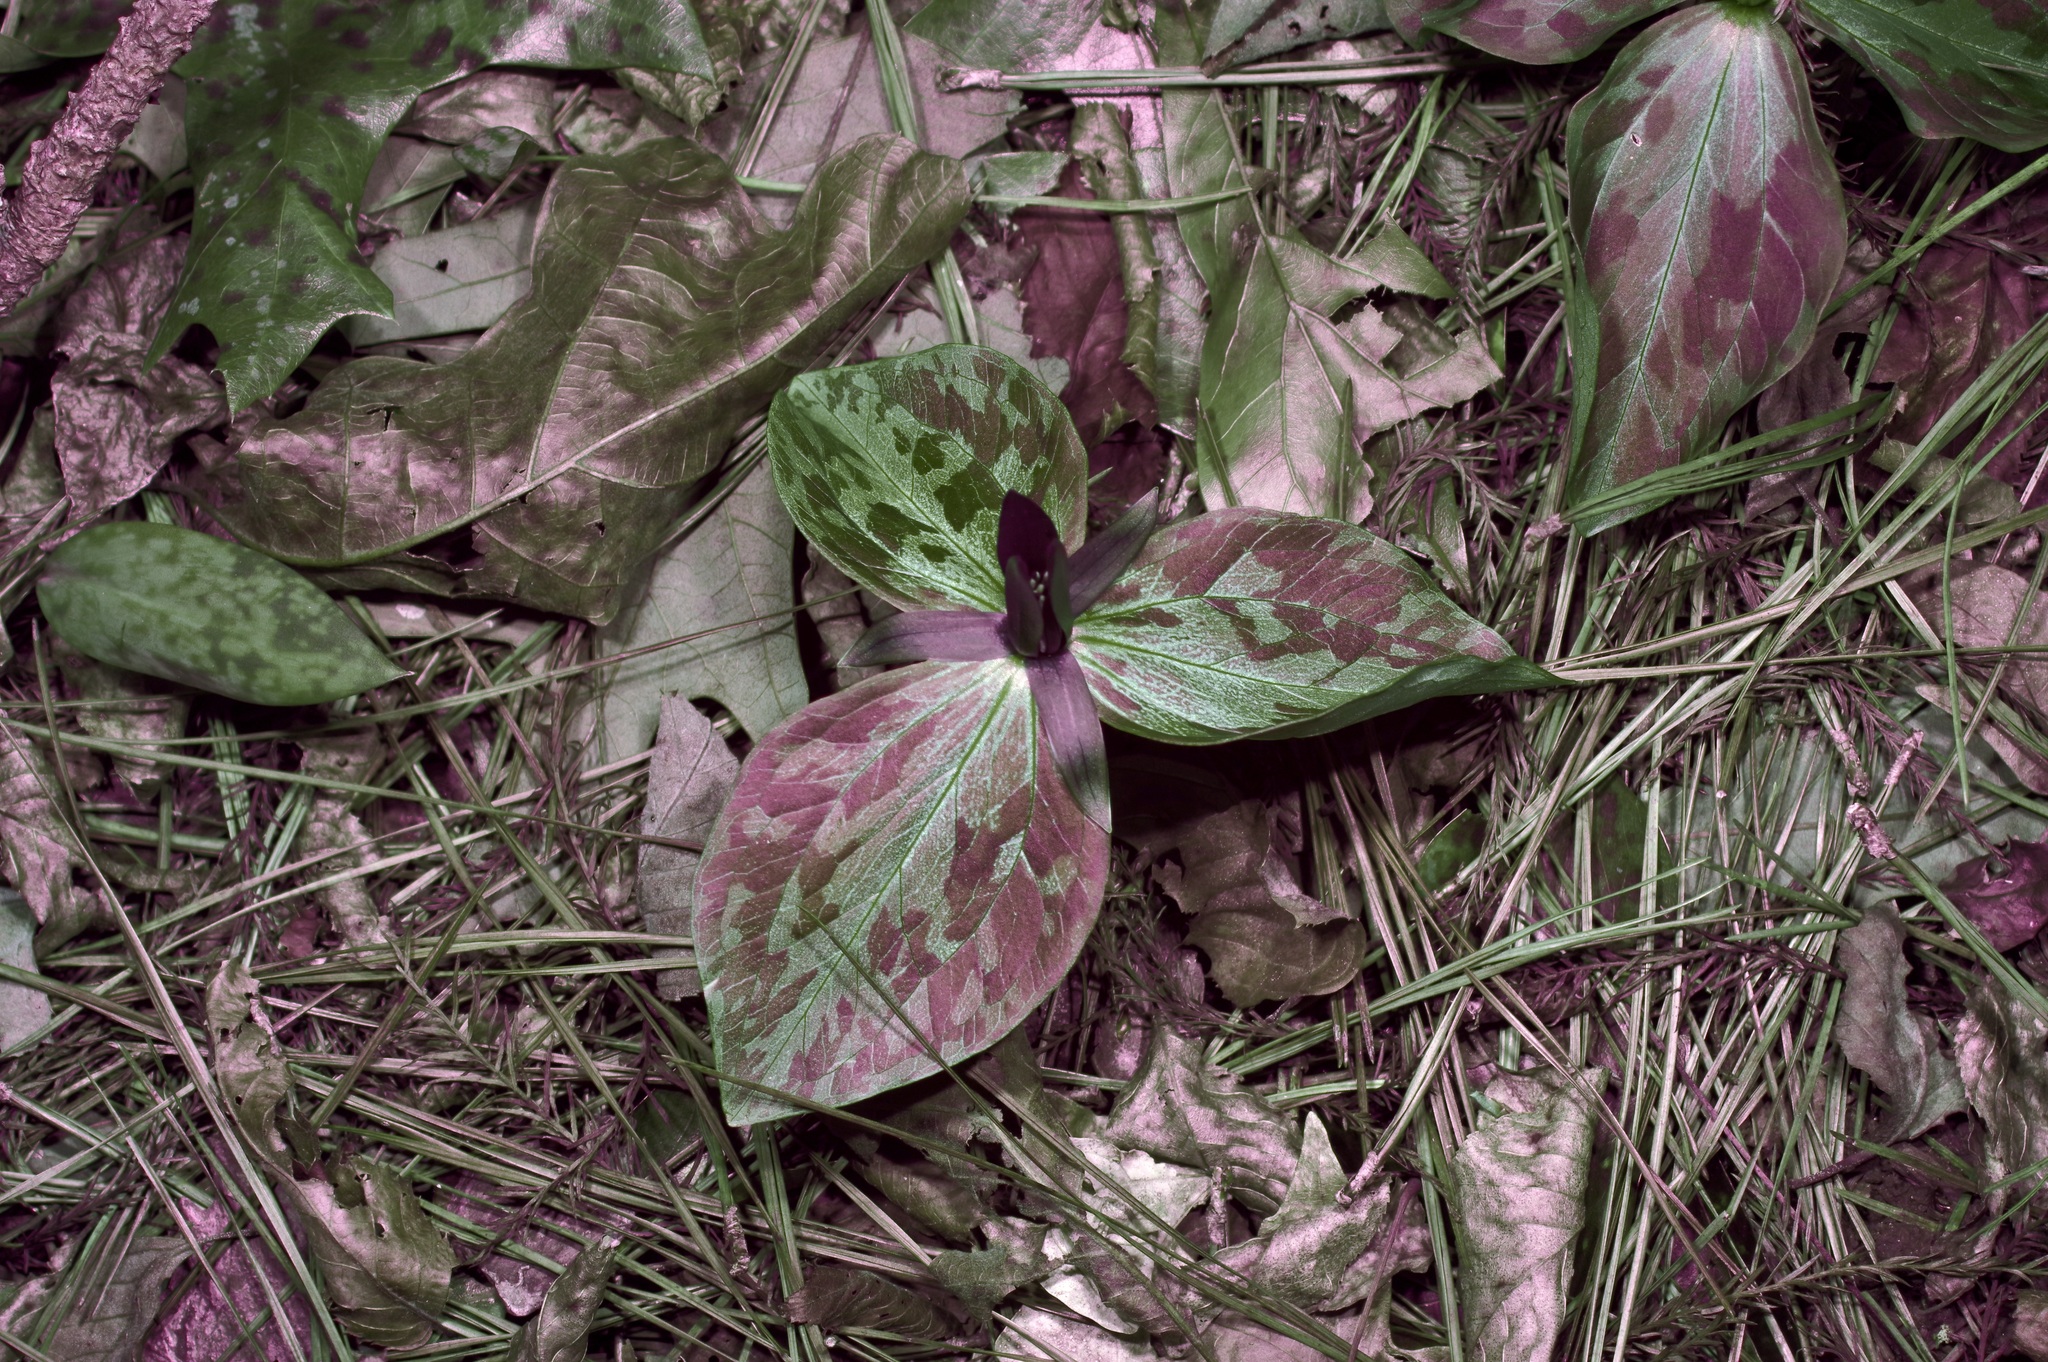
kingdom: Plantae
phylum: Tracheophyta
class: Liliopsida
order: Liliales
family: Melanthiaceae
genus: Trillium
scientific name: Trillium gracile
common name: Graceful trillium
